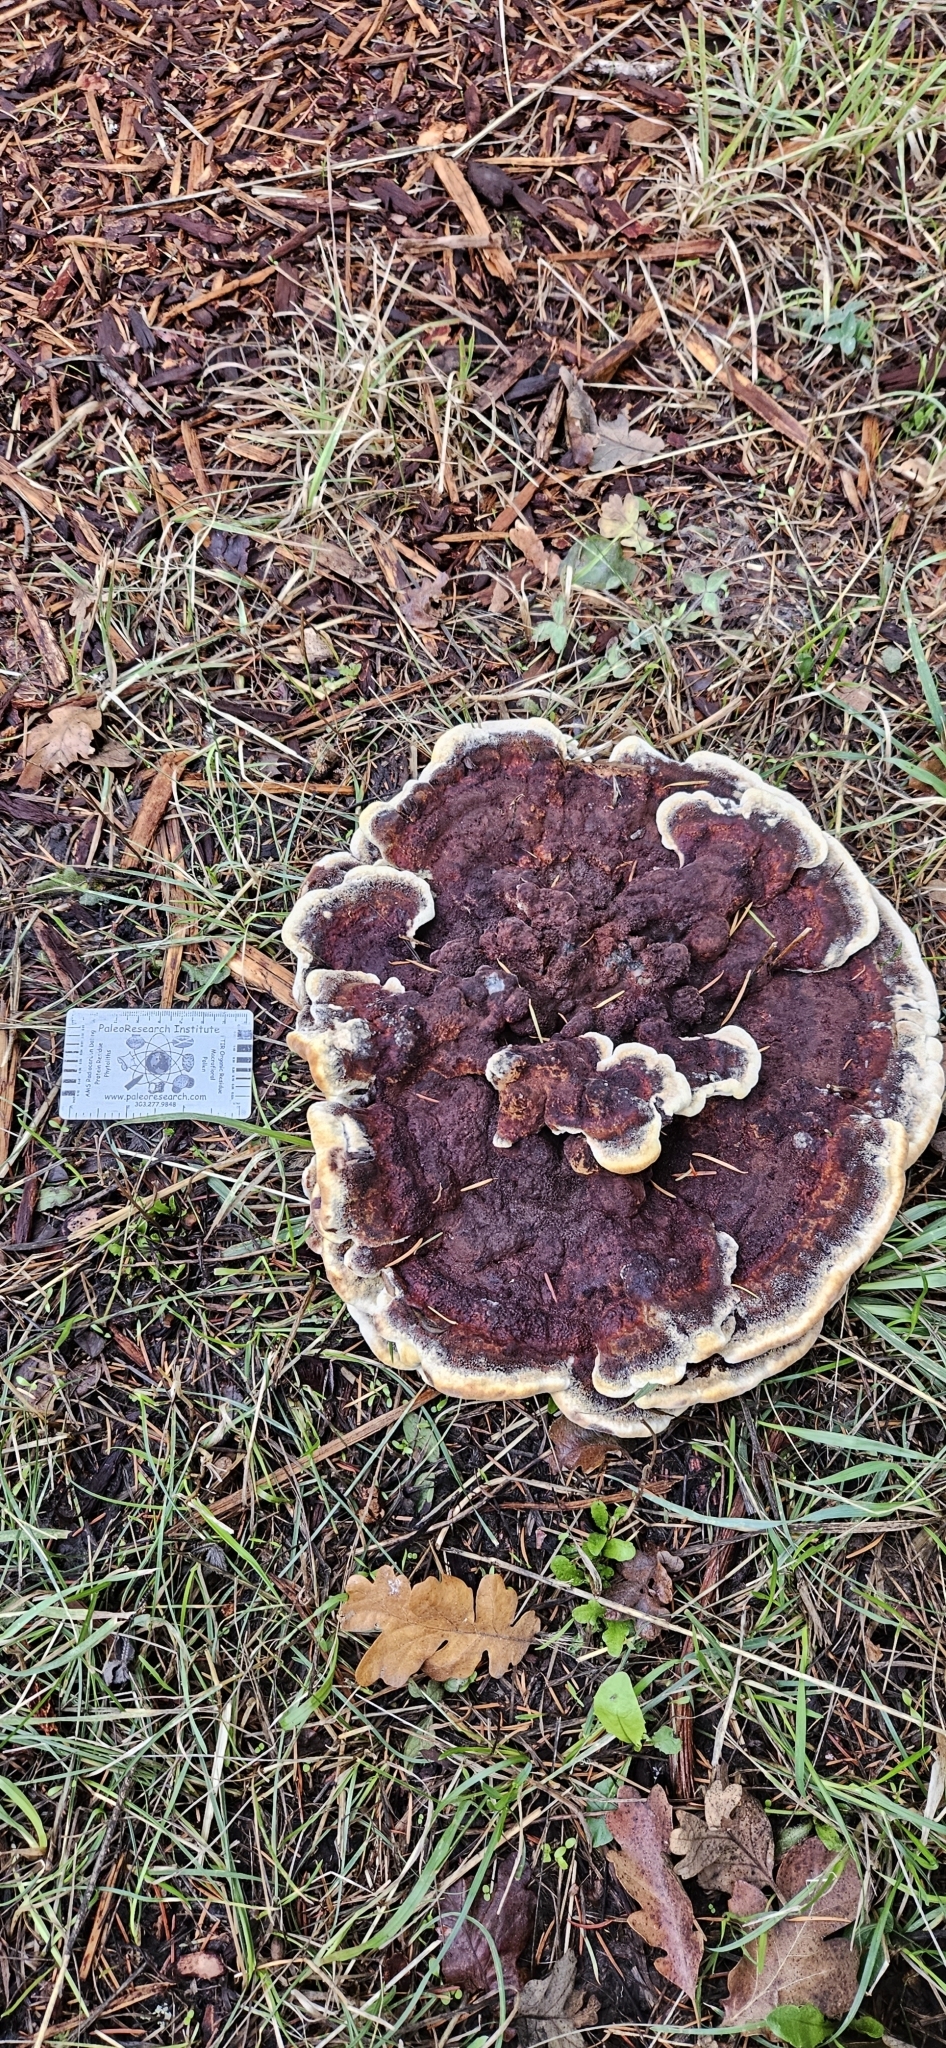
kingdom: Fungi
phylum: Basidiomycota
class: Agaricomycetes
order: Polyporales
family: Laetiporaceae
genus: Phaeolus
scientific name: Phaeolus schweinitzii
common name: Dyer's mazegill
